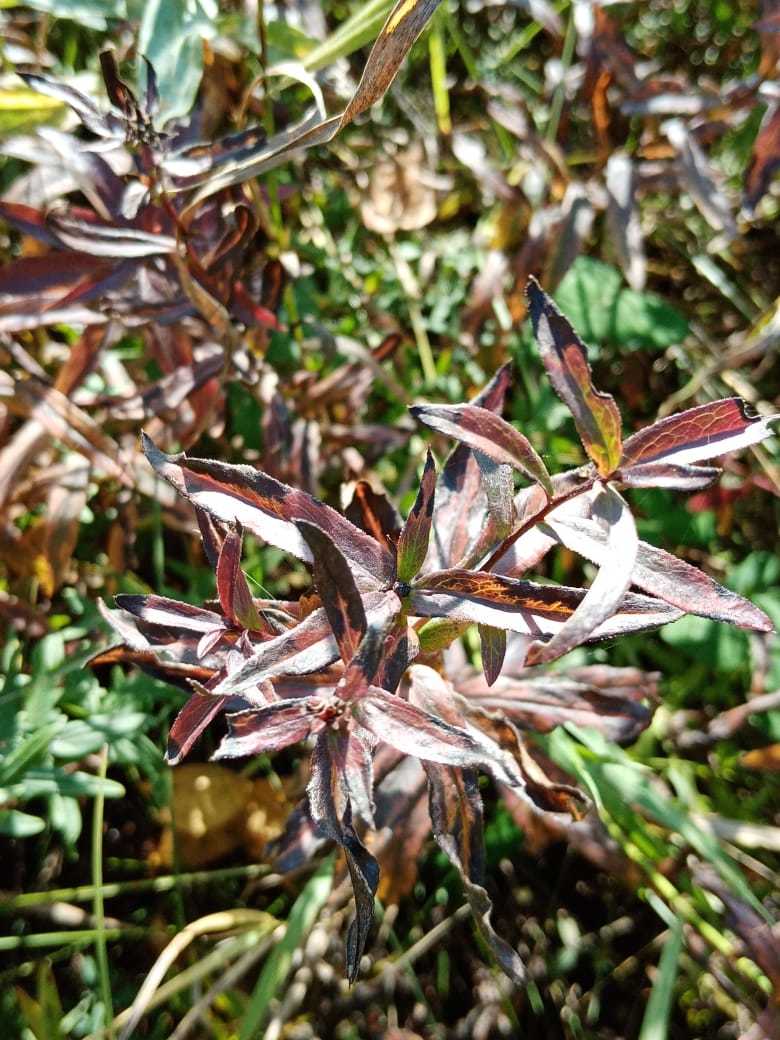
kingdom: Plantae
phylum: Tracheophyta
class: Magnoliopsida
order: Asterales
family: Asteraceae
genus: Pentanema
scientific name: Pentanema salicinum
